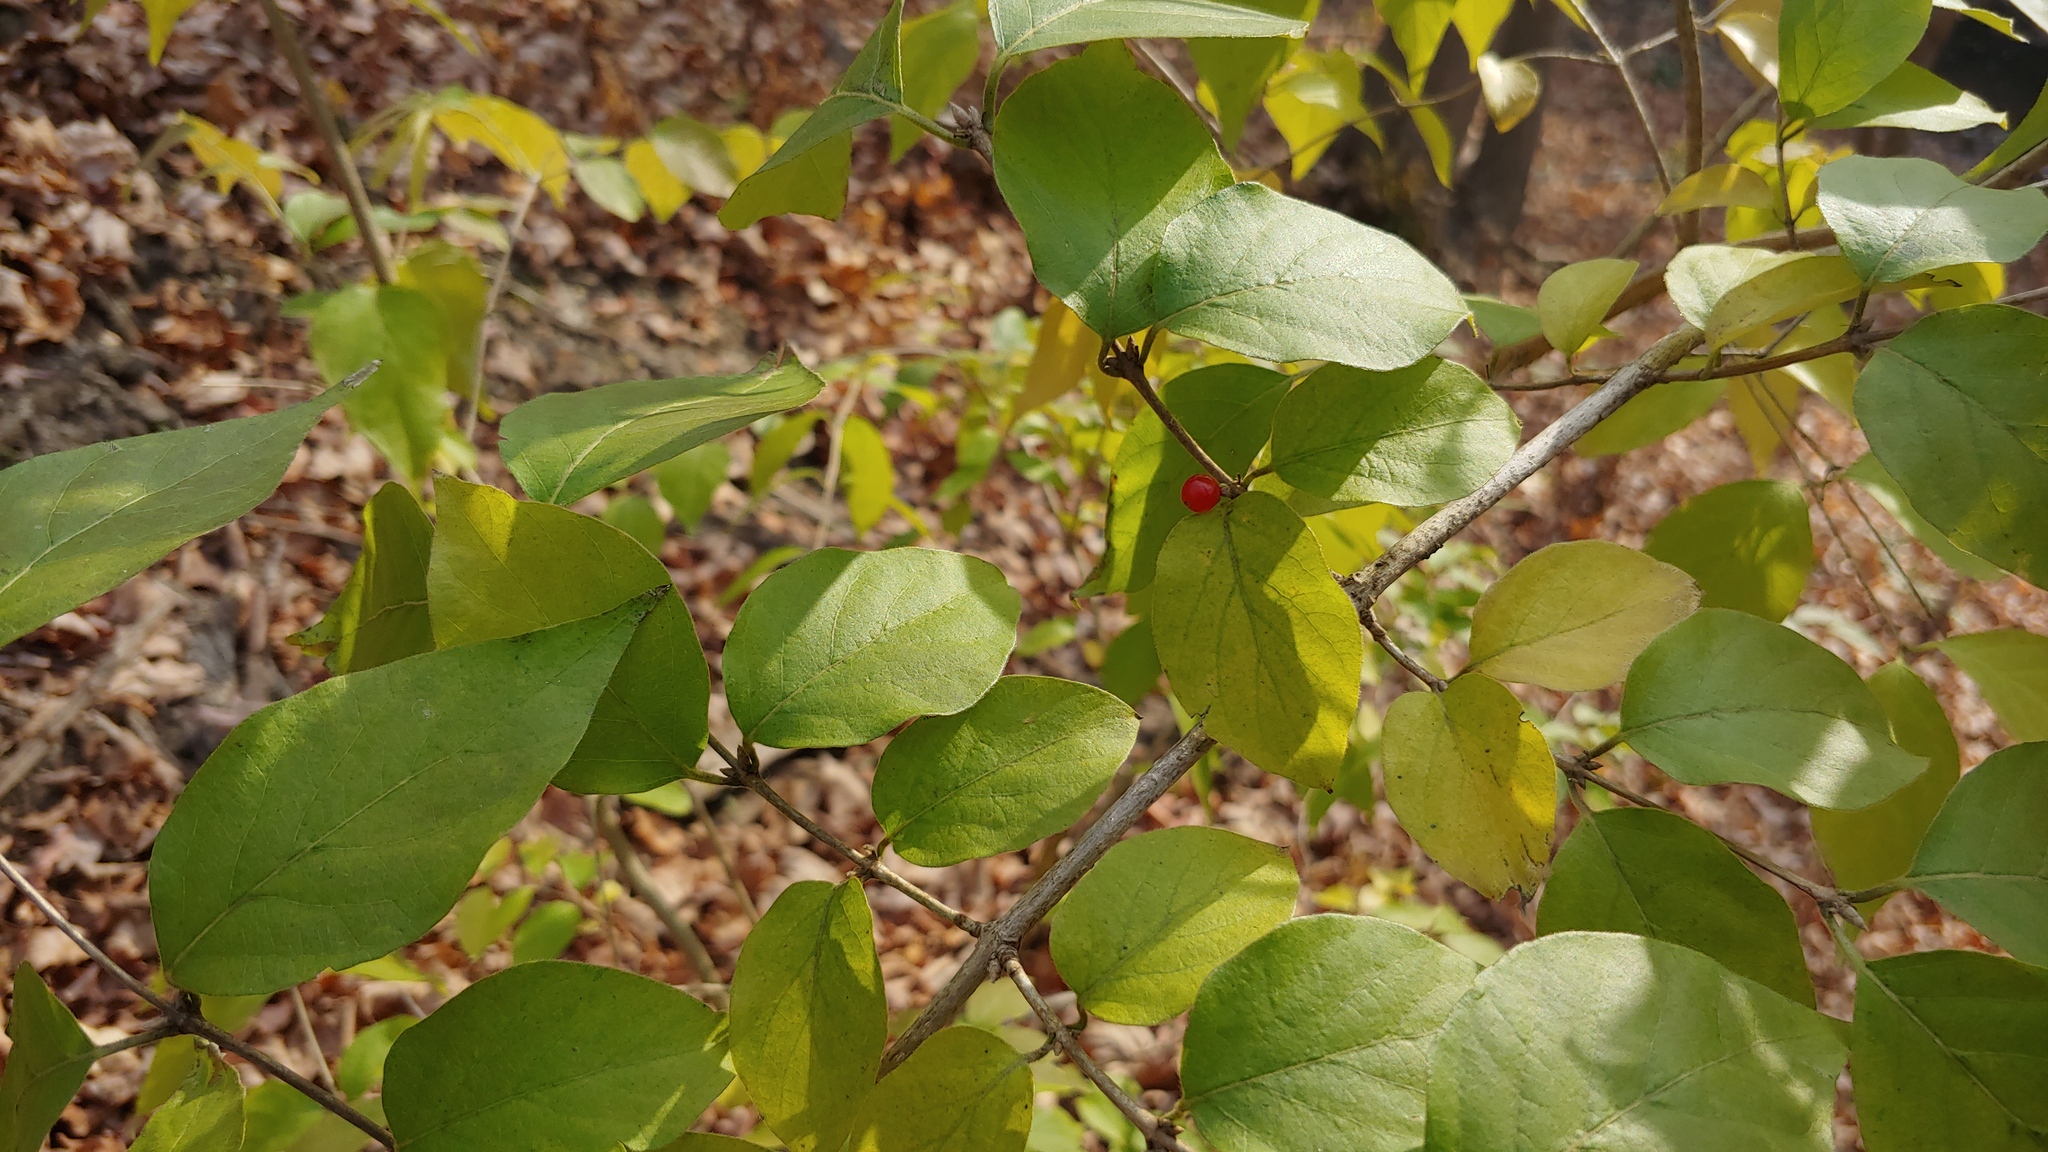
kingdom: Plantae
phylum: Tracheophyta
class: Magnoliopsida
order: Dipsacales
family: Caprifoliaceae
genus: Lonicera
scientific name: Lonicera maackii
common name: Amur honeysuckle
